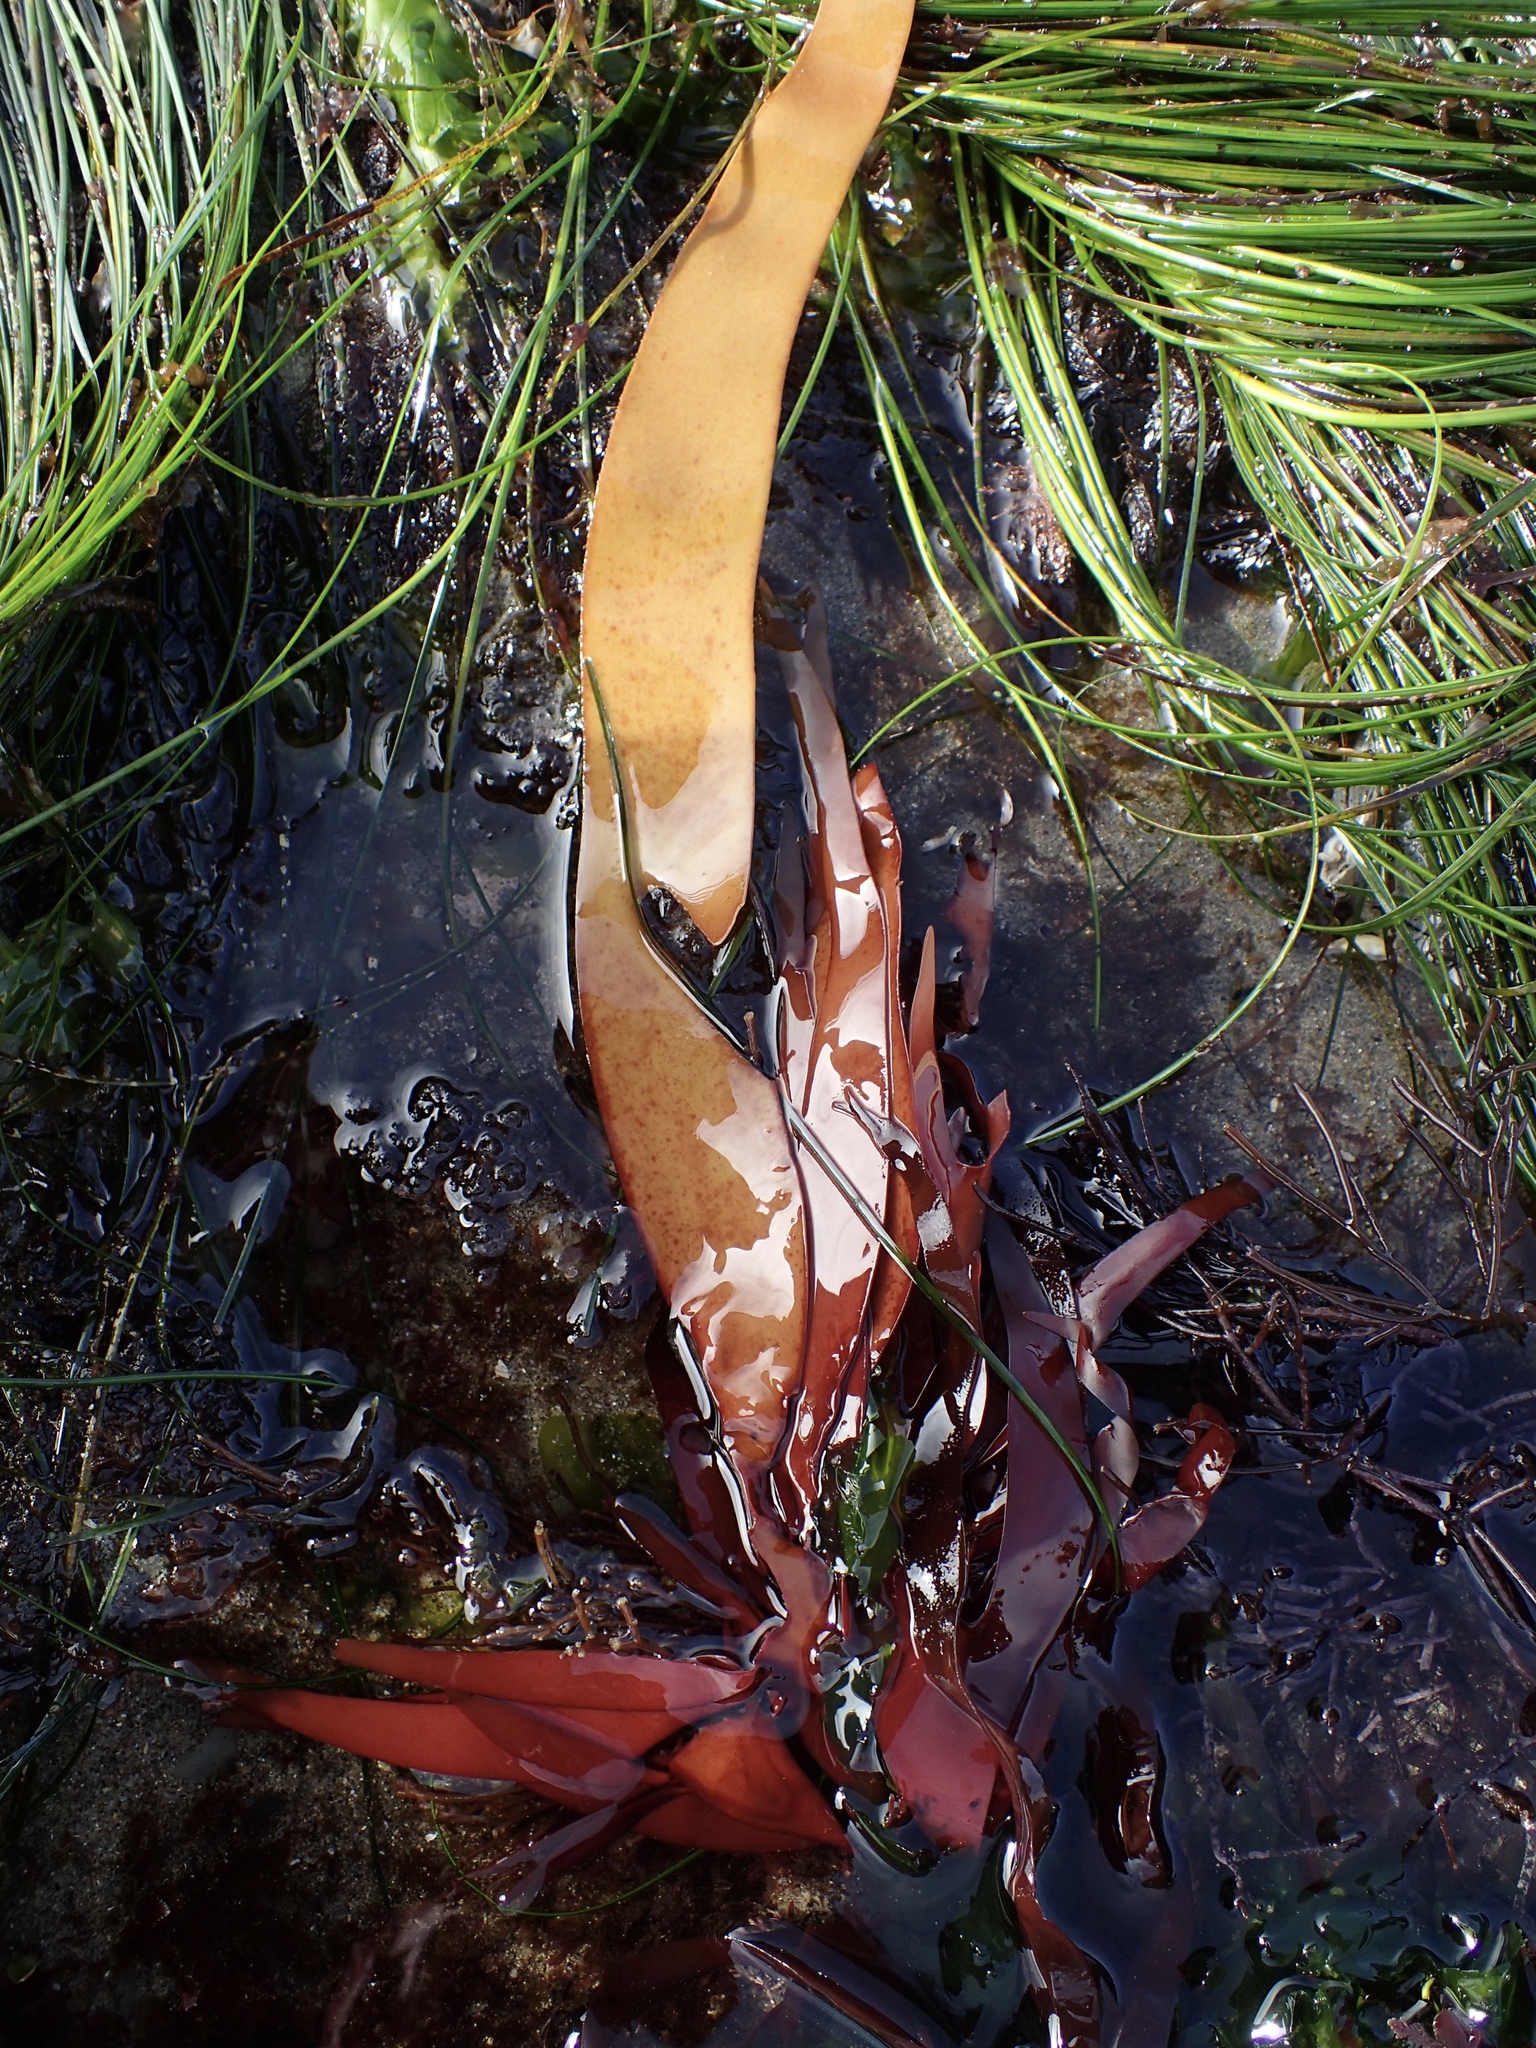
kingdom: Plantae
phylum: Rhodophyta
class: Florideophyceae
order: Halymeniales
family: Halymeniaceae
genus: Grateloupia
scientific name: Grateloupia Prionitis sternbergii
